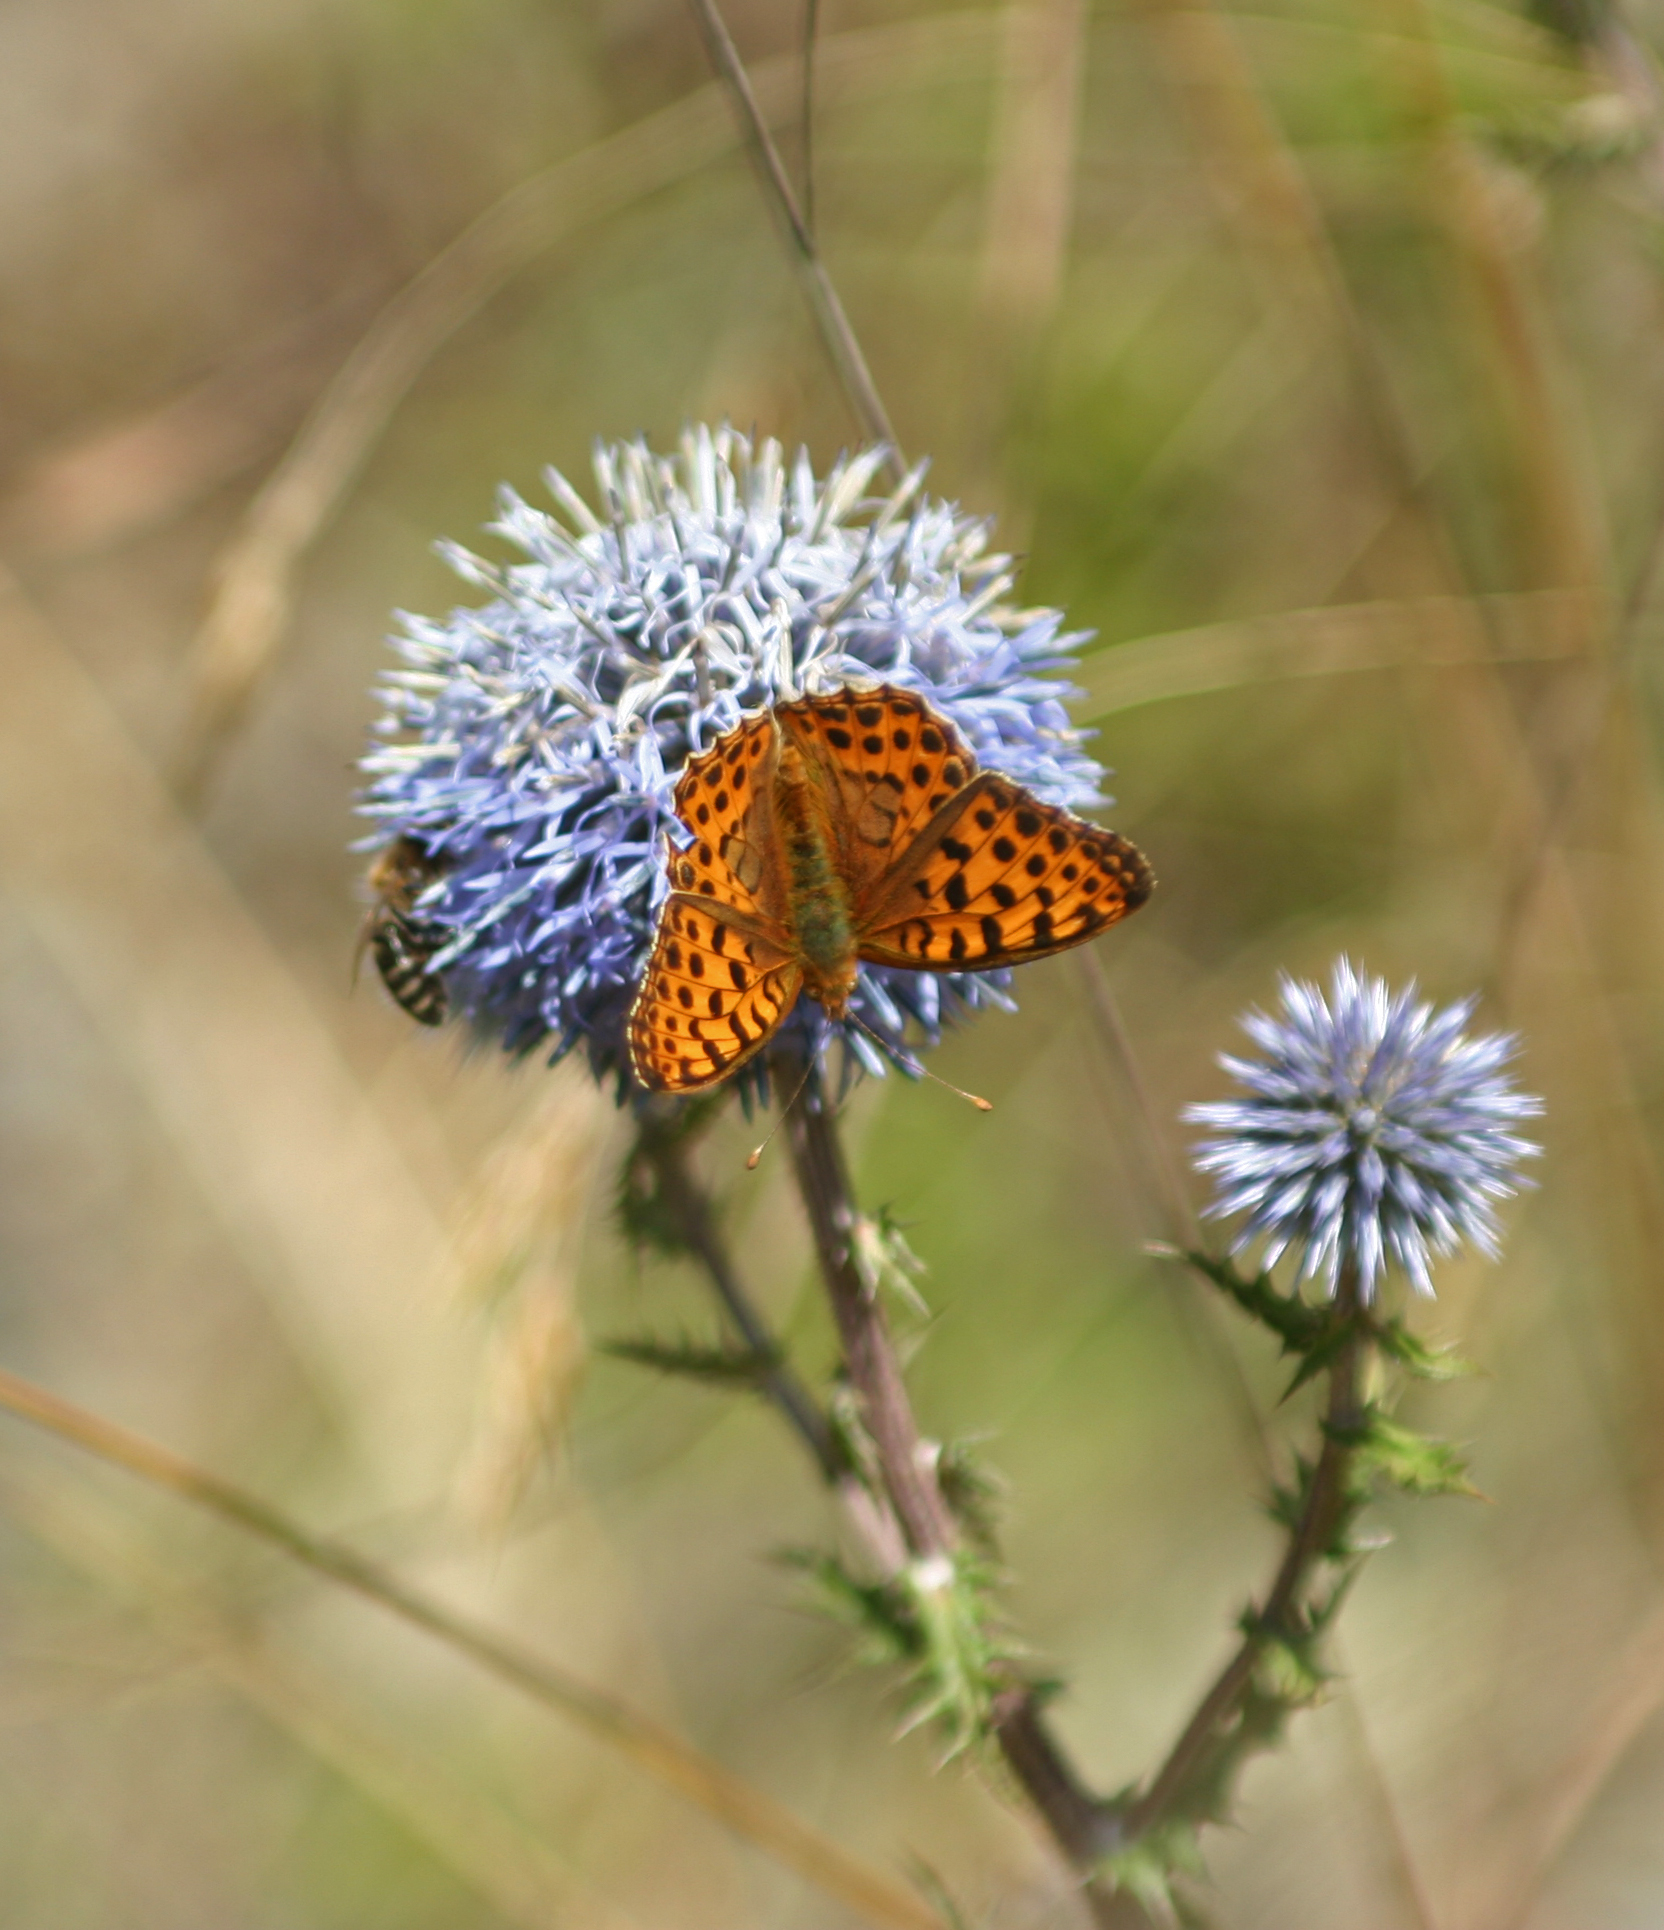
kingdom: Plantae
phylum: Tracheophyta
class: Magnoliopsida
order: Asterales
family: Asteraceae
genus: Echinops
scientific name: Echinops sphaerocephalus
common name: Glandular globe-thistle
